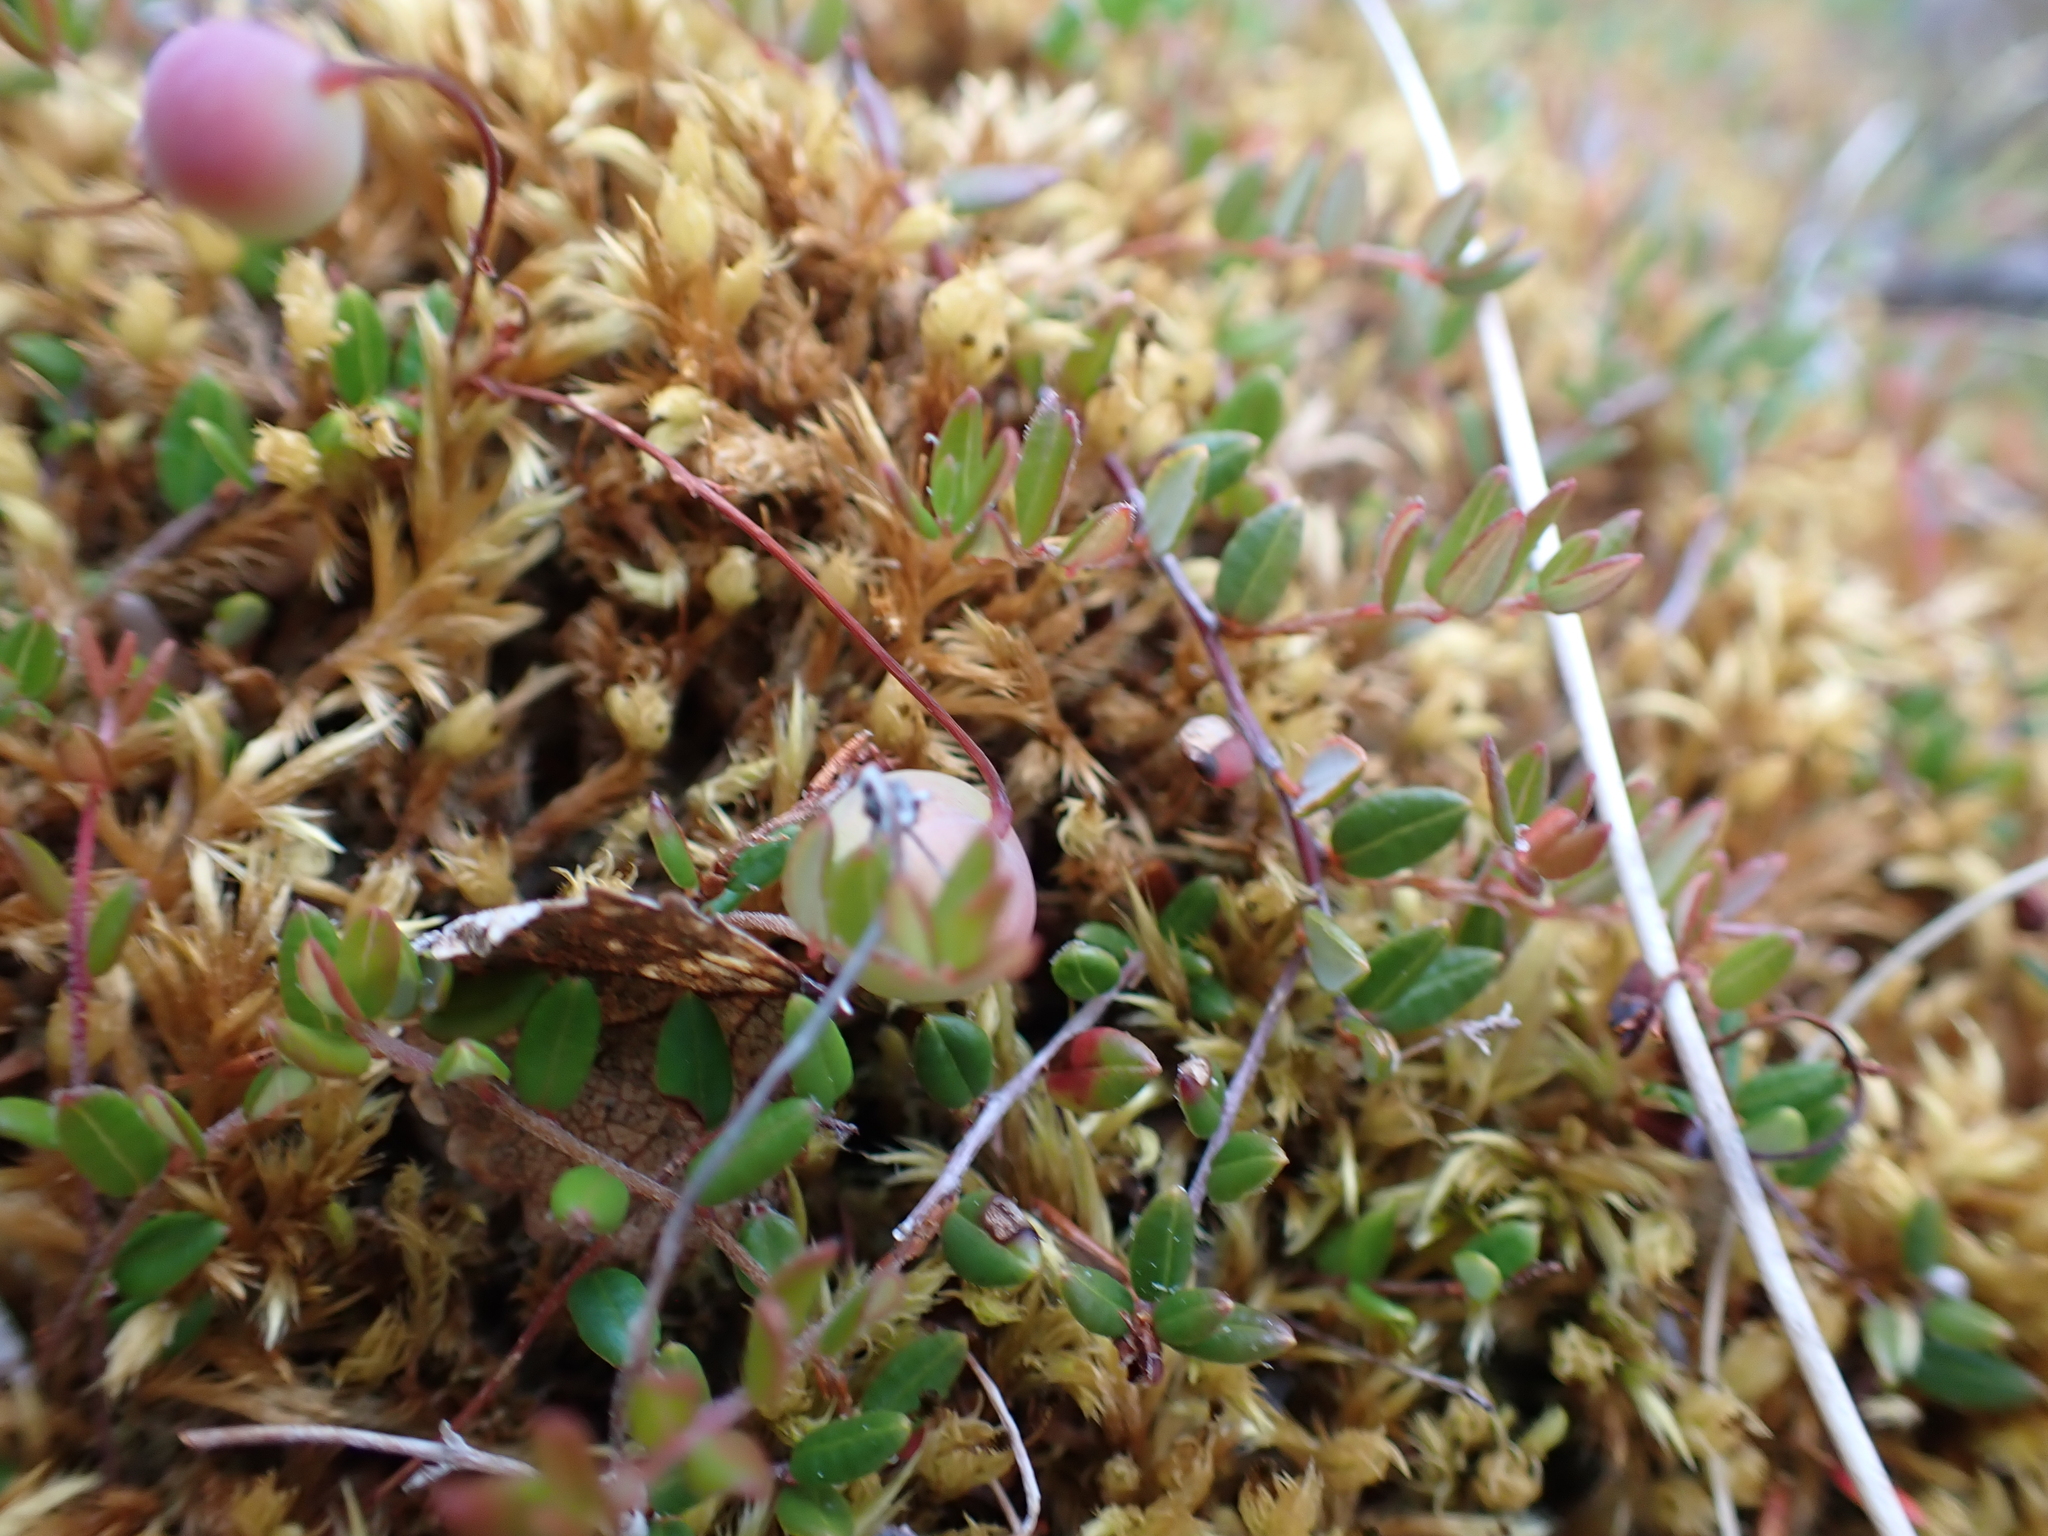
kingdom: Plantae
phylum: Tracheophyta
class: Magnoliopsida
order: Ericales
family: Ericaceae
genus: Vaccinium
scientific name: Vaccinium oxycoccos
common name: Cranberry
